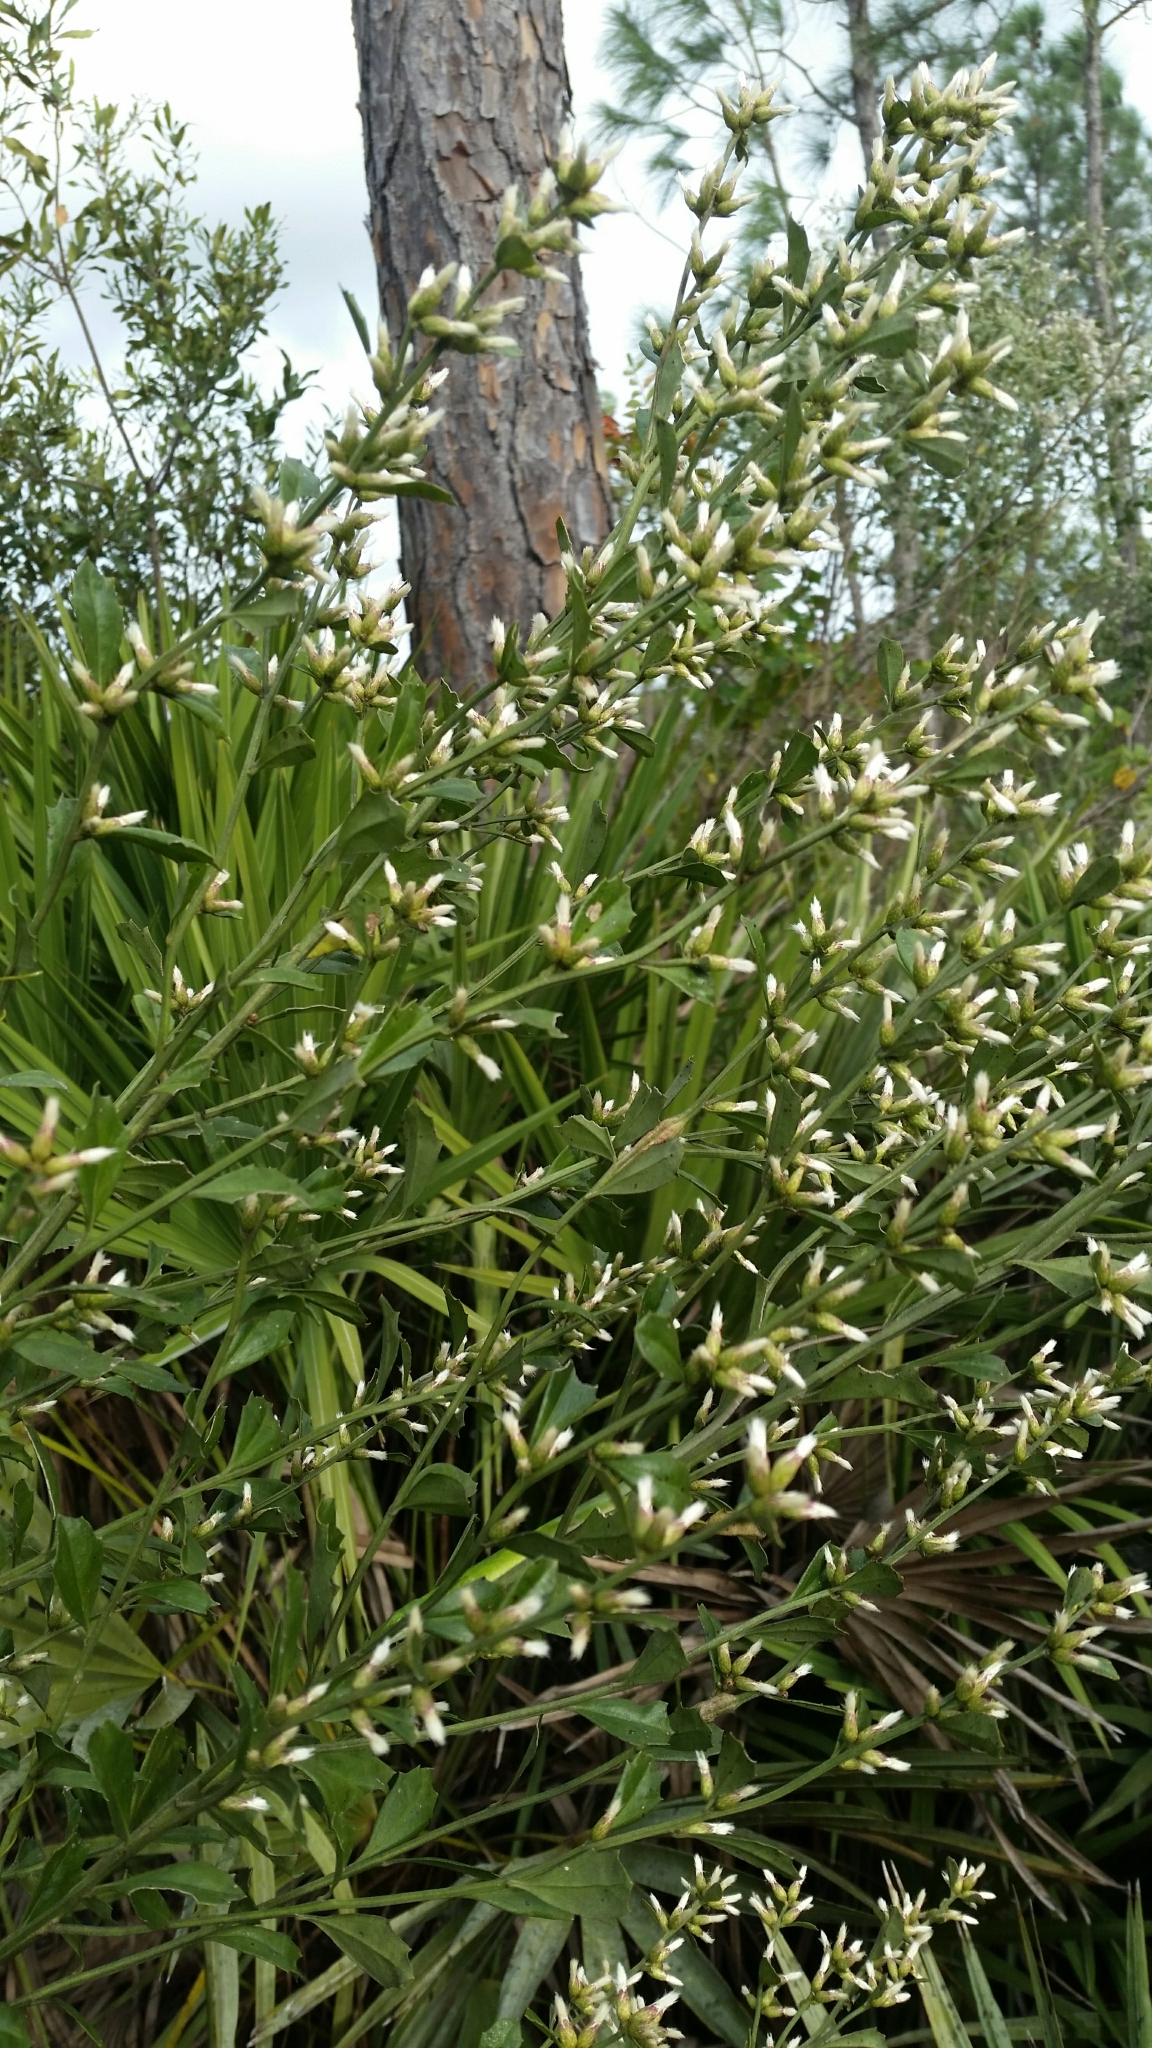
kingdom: Plantae
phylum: Tracheophyta
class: Magnoliopsida
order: Asterales
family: Asteraceae
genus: Baccharis
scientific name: Baccharis glomeruliflora
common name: Silverling groundsel bush
